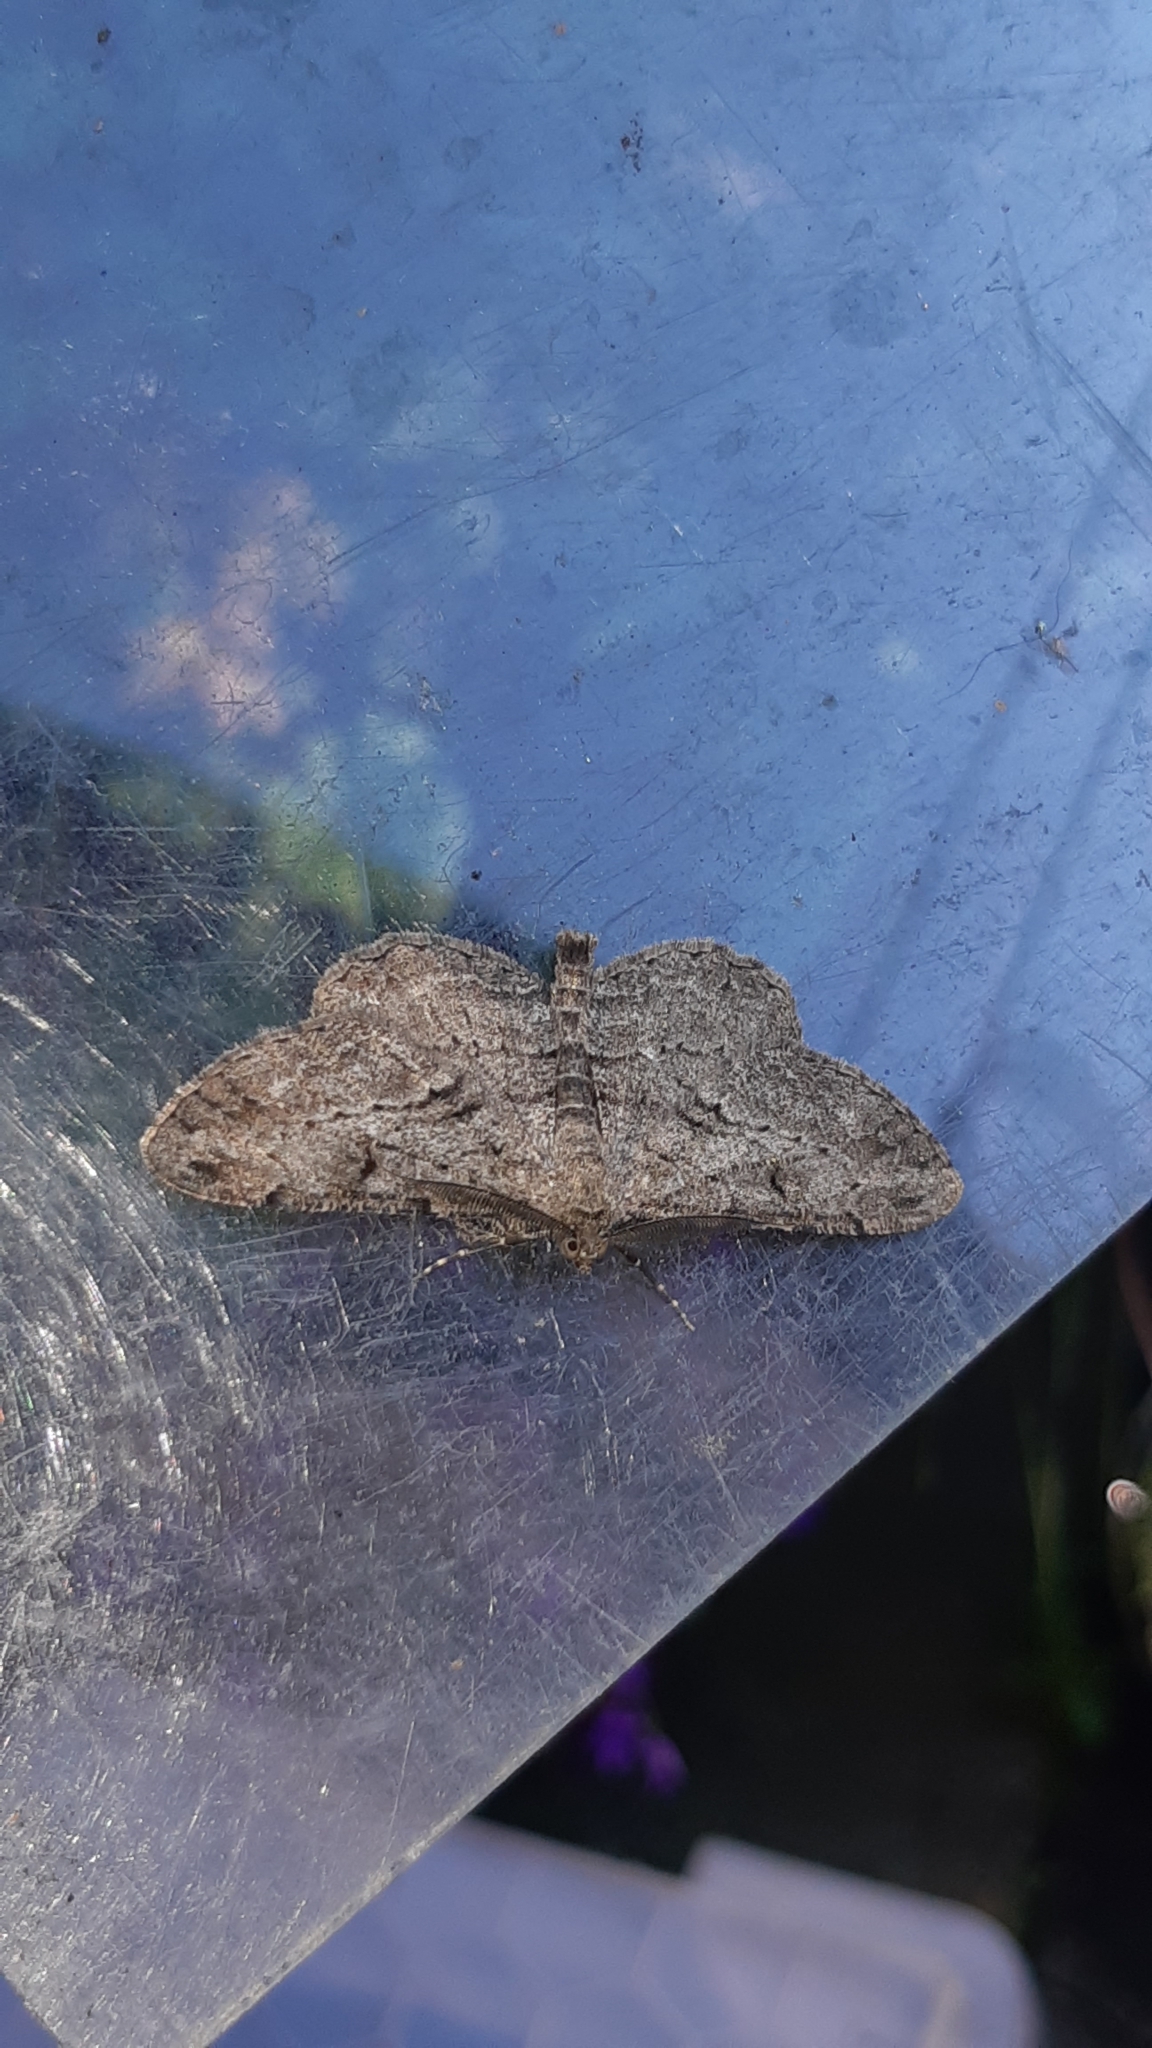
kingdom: Animalia
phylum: Arthropoda
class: Insecta
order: Lepidoptera
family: Geometridae
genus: Peribatodes
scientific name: Peribatodes rhomboidaria
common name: Willow beauty
